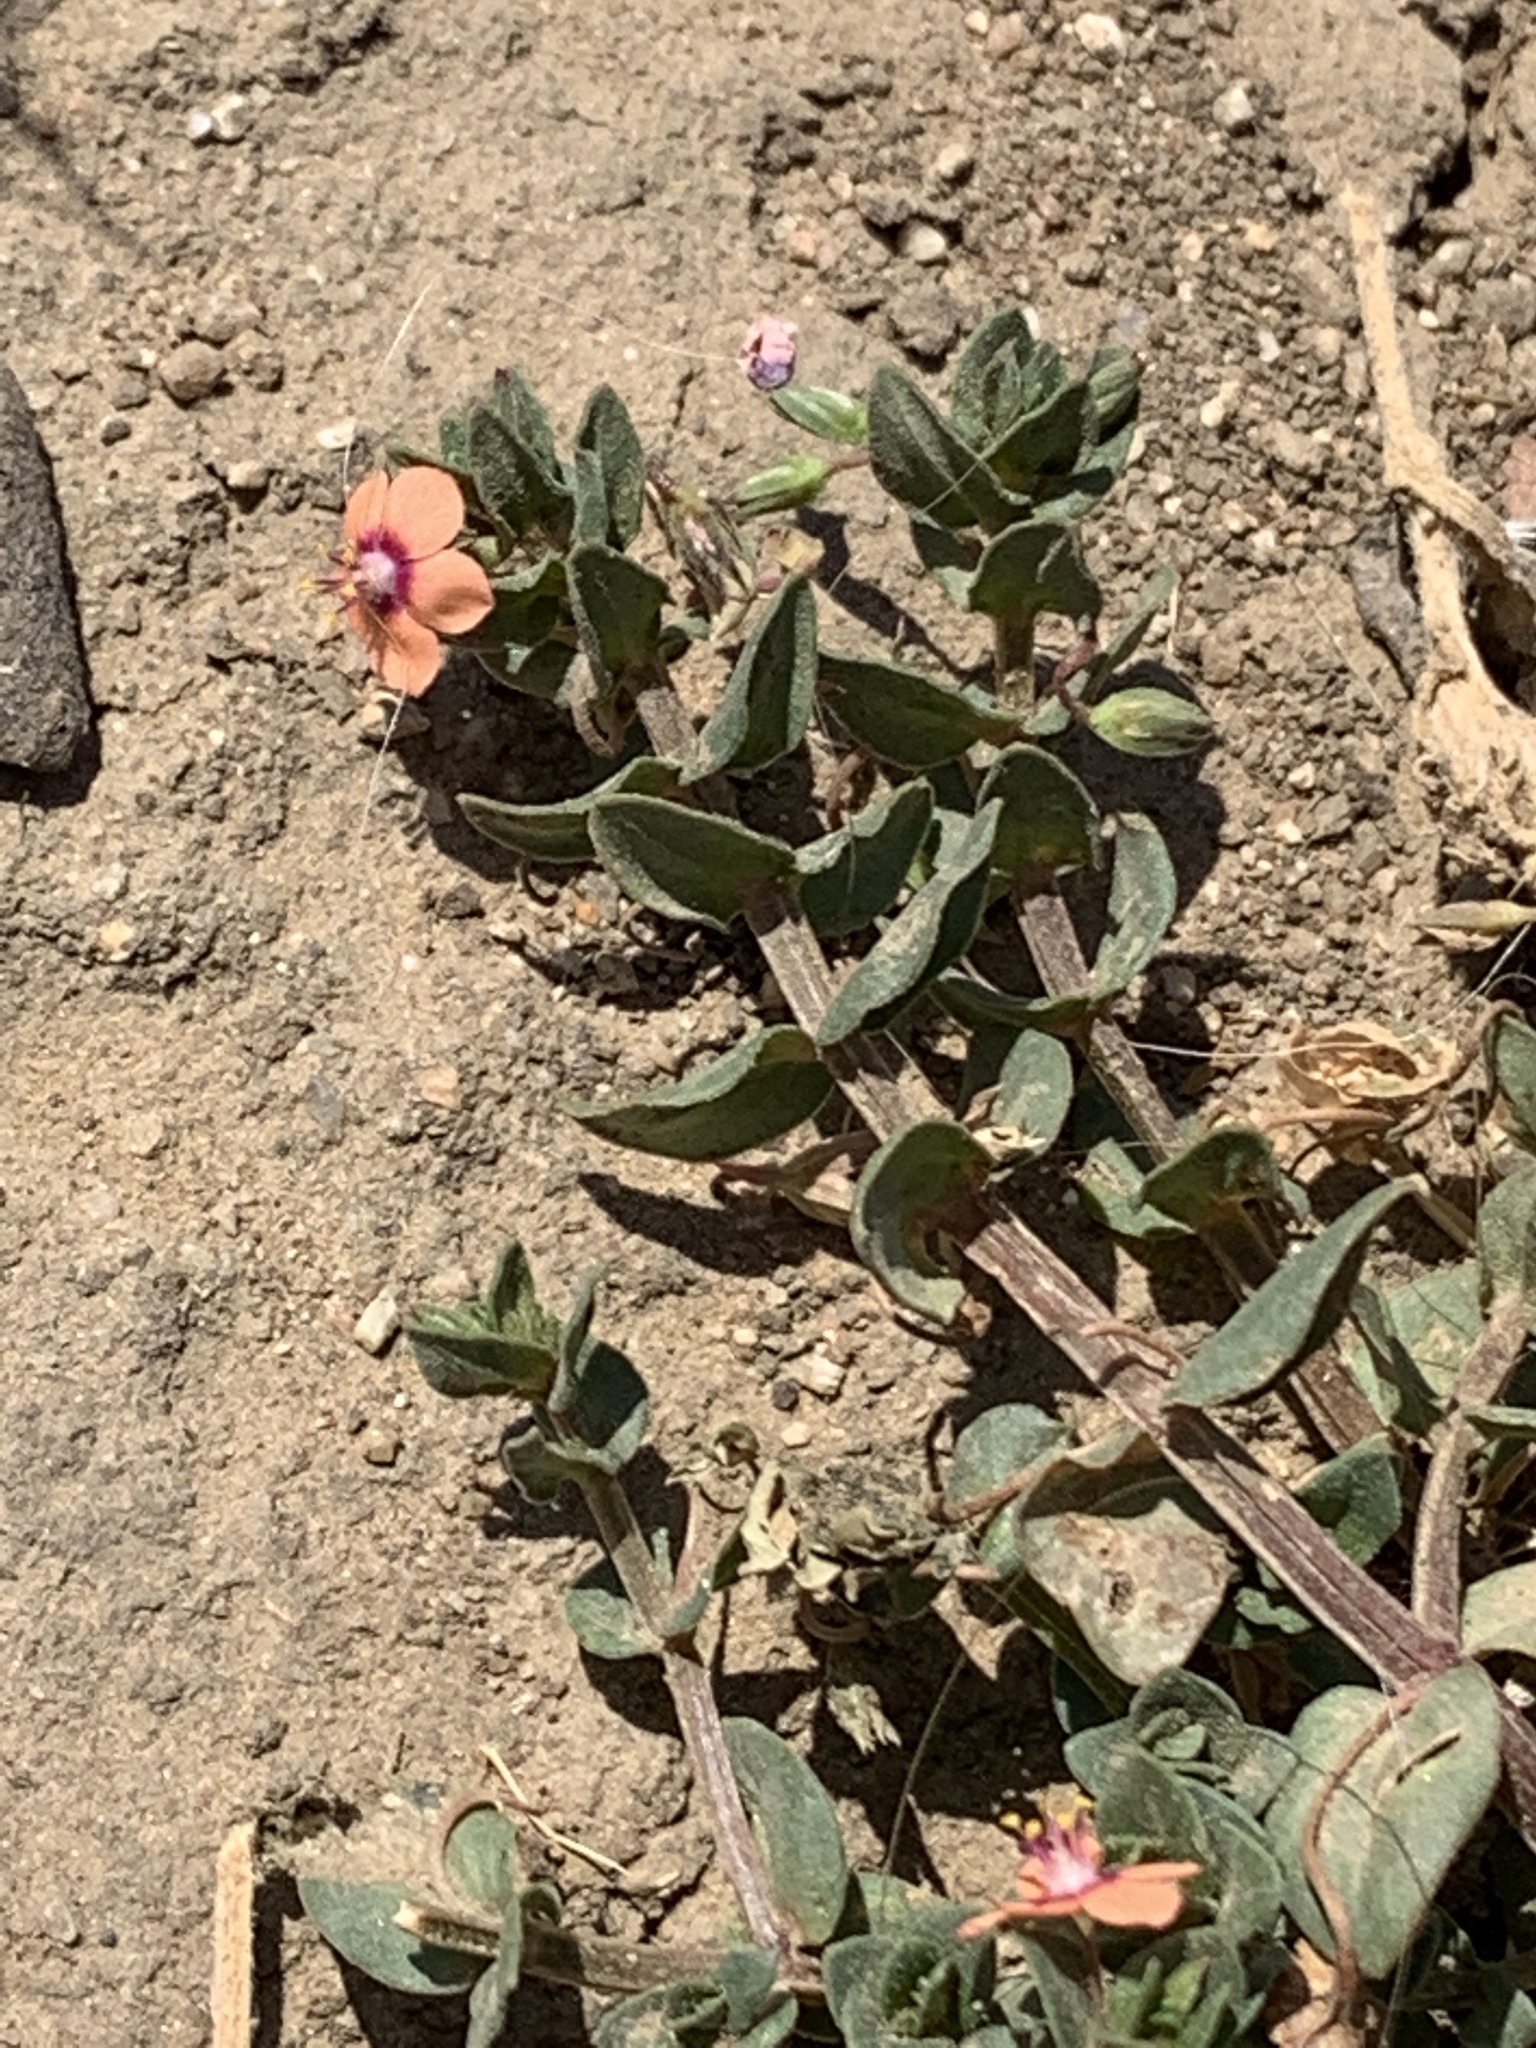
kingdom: Plantae
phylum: Tracheophyta
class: Magnoliopsida
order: Ericales
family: Primulaceae
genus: Lysimachia
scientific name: Lysimachia arvensis
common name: Scarlet pimpernel
